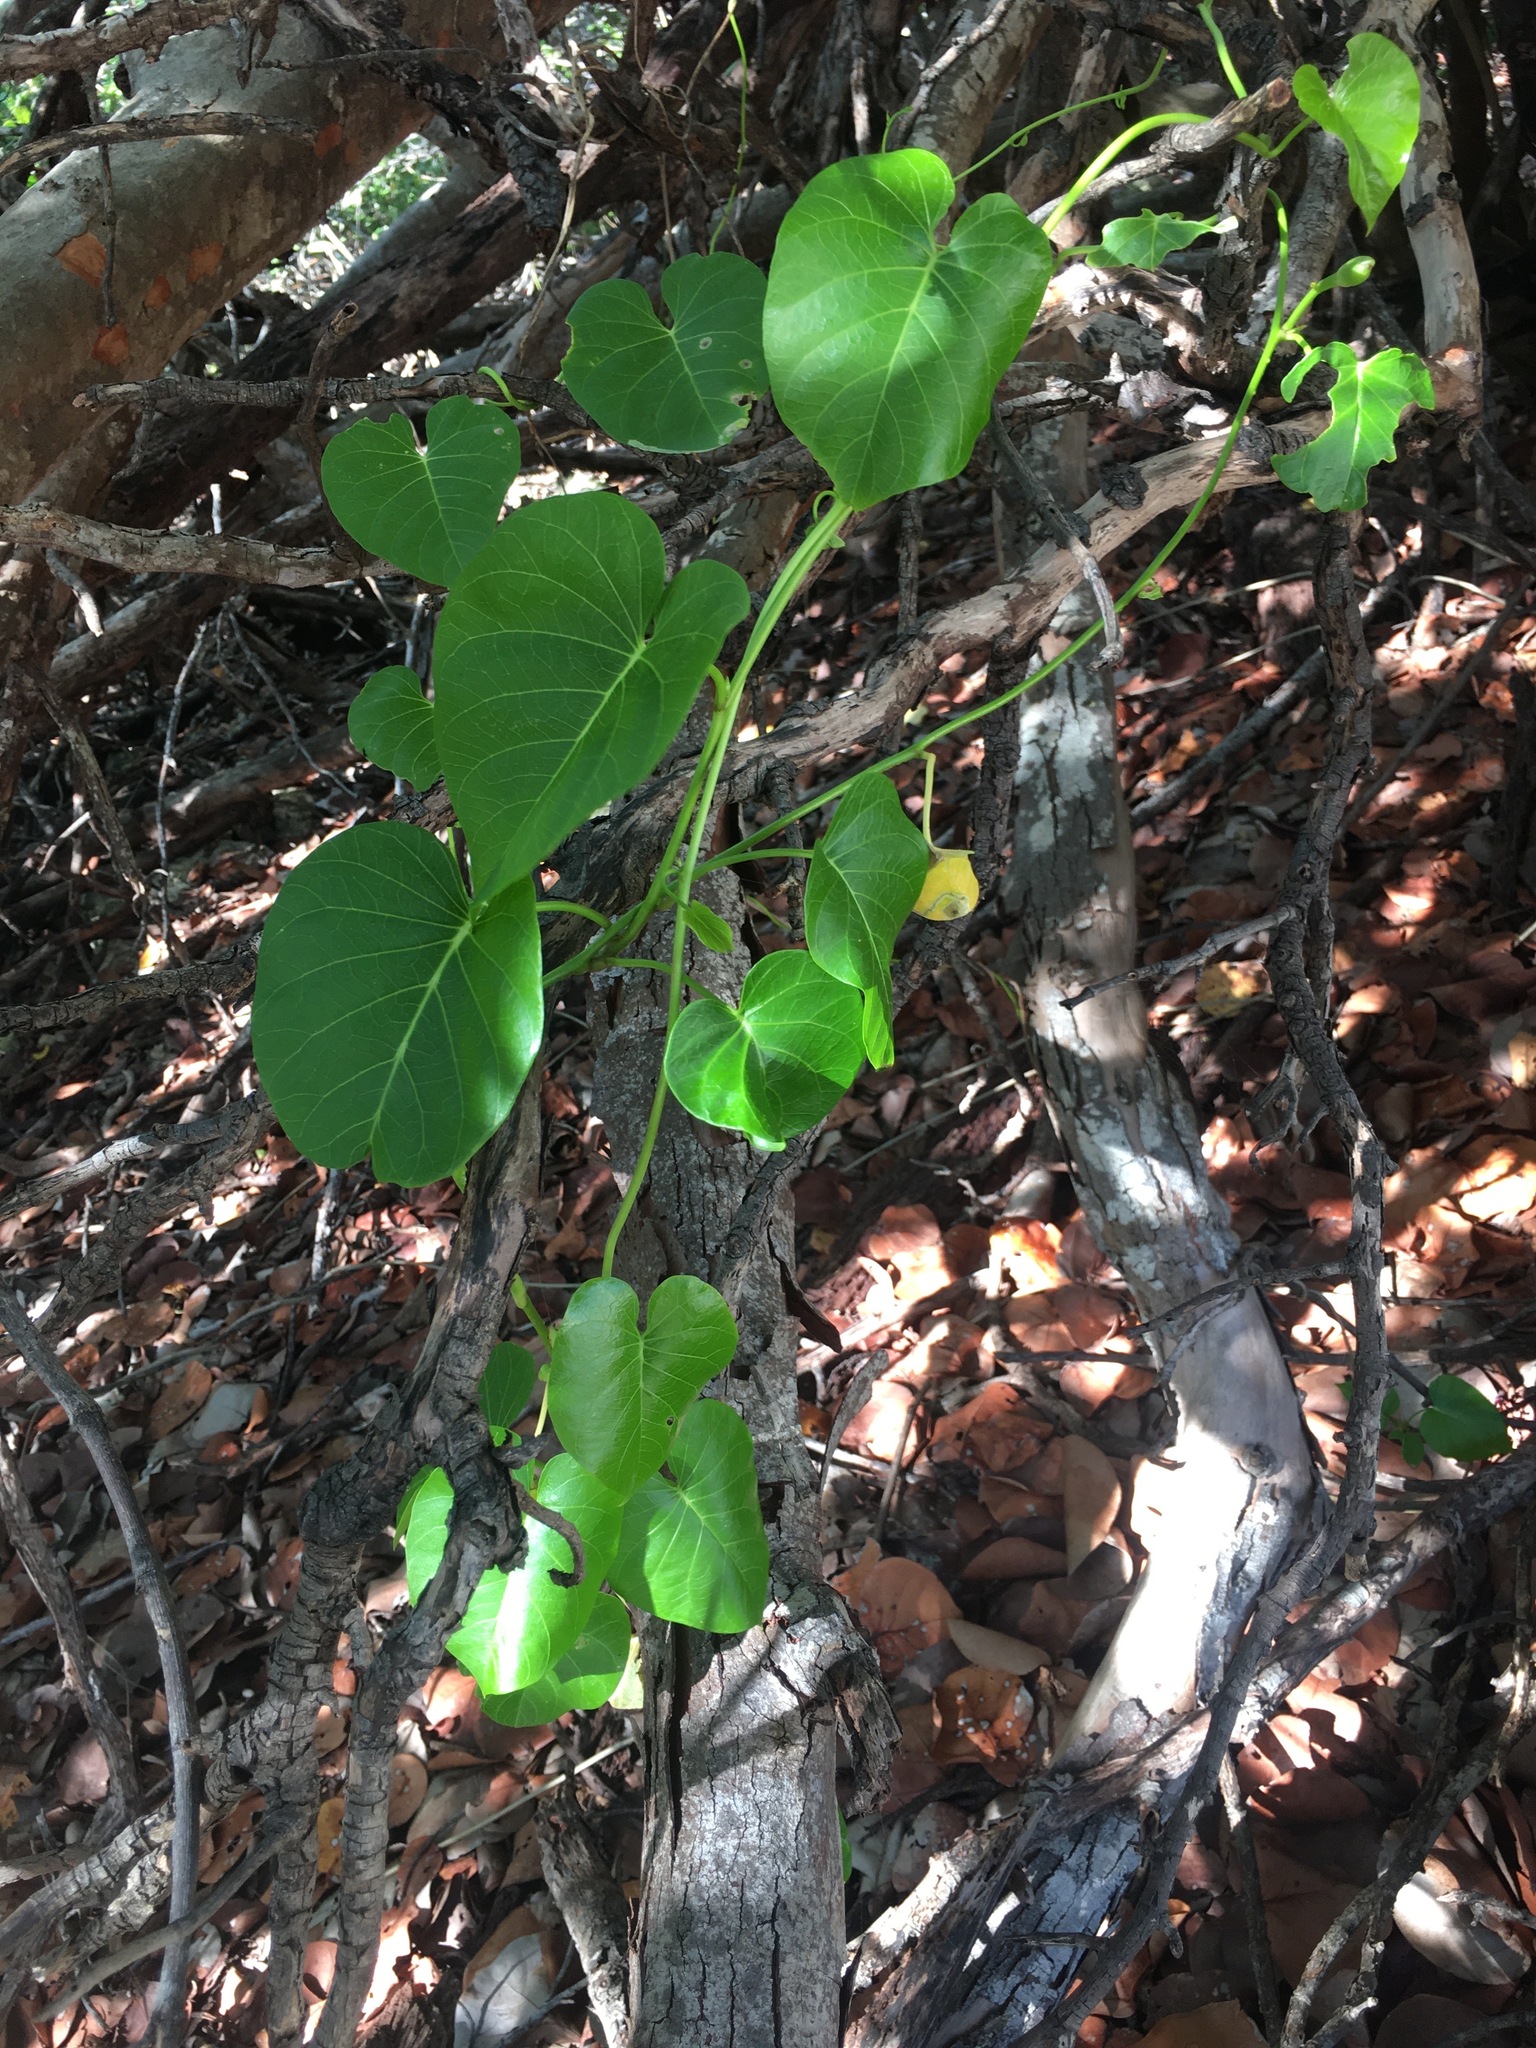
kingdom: Plantae
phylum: Tracheophyta
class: Magnoliopsida
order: Solanales
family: Convolvulaceae
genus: Ipomoea
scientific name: Ipomoea violacea
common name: Beach moonflower
